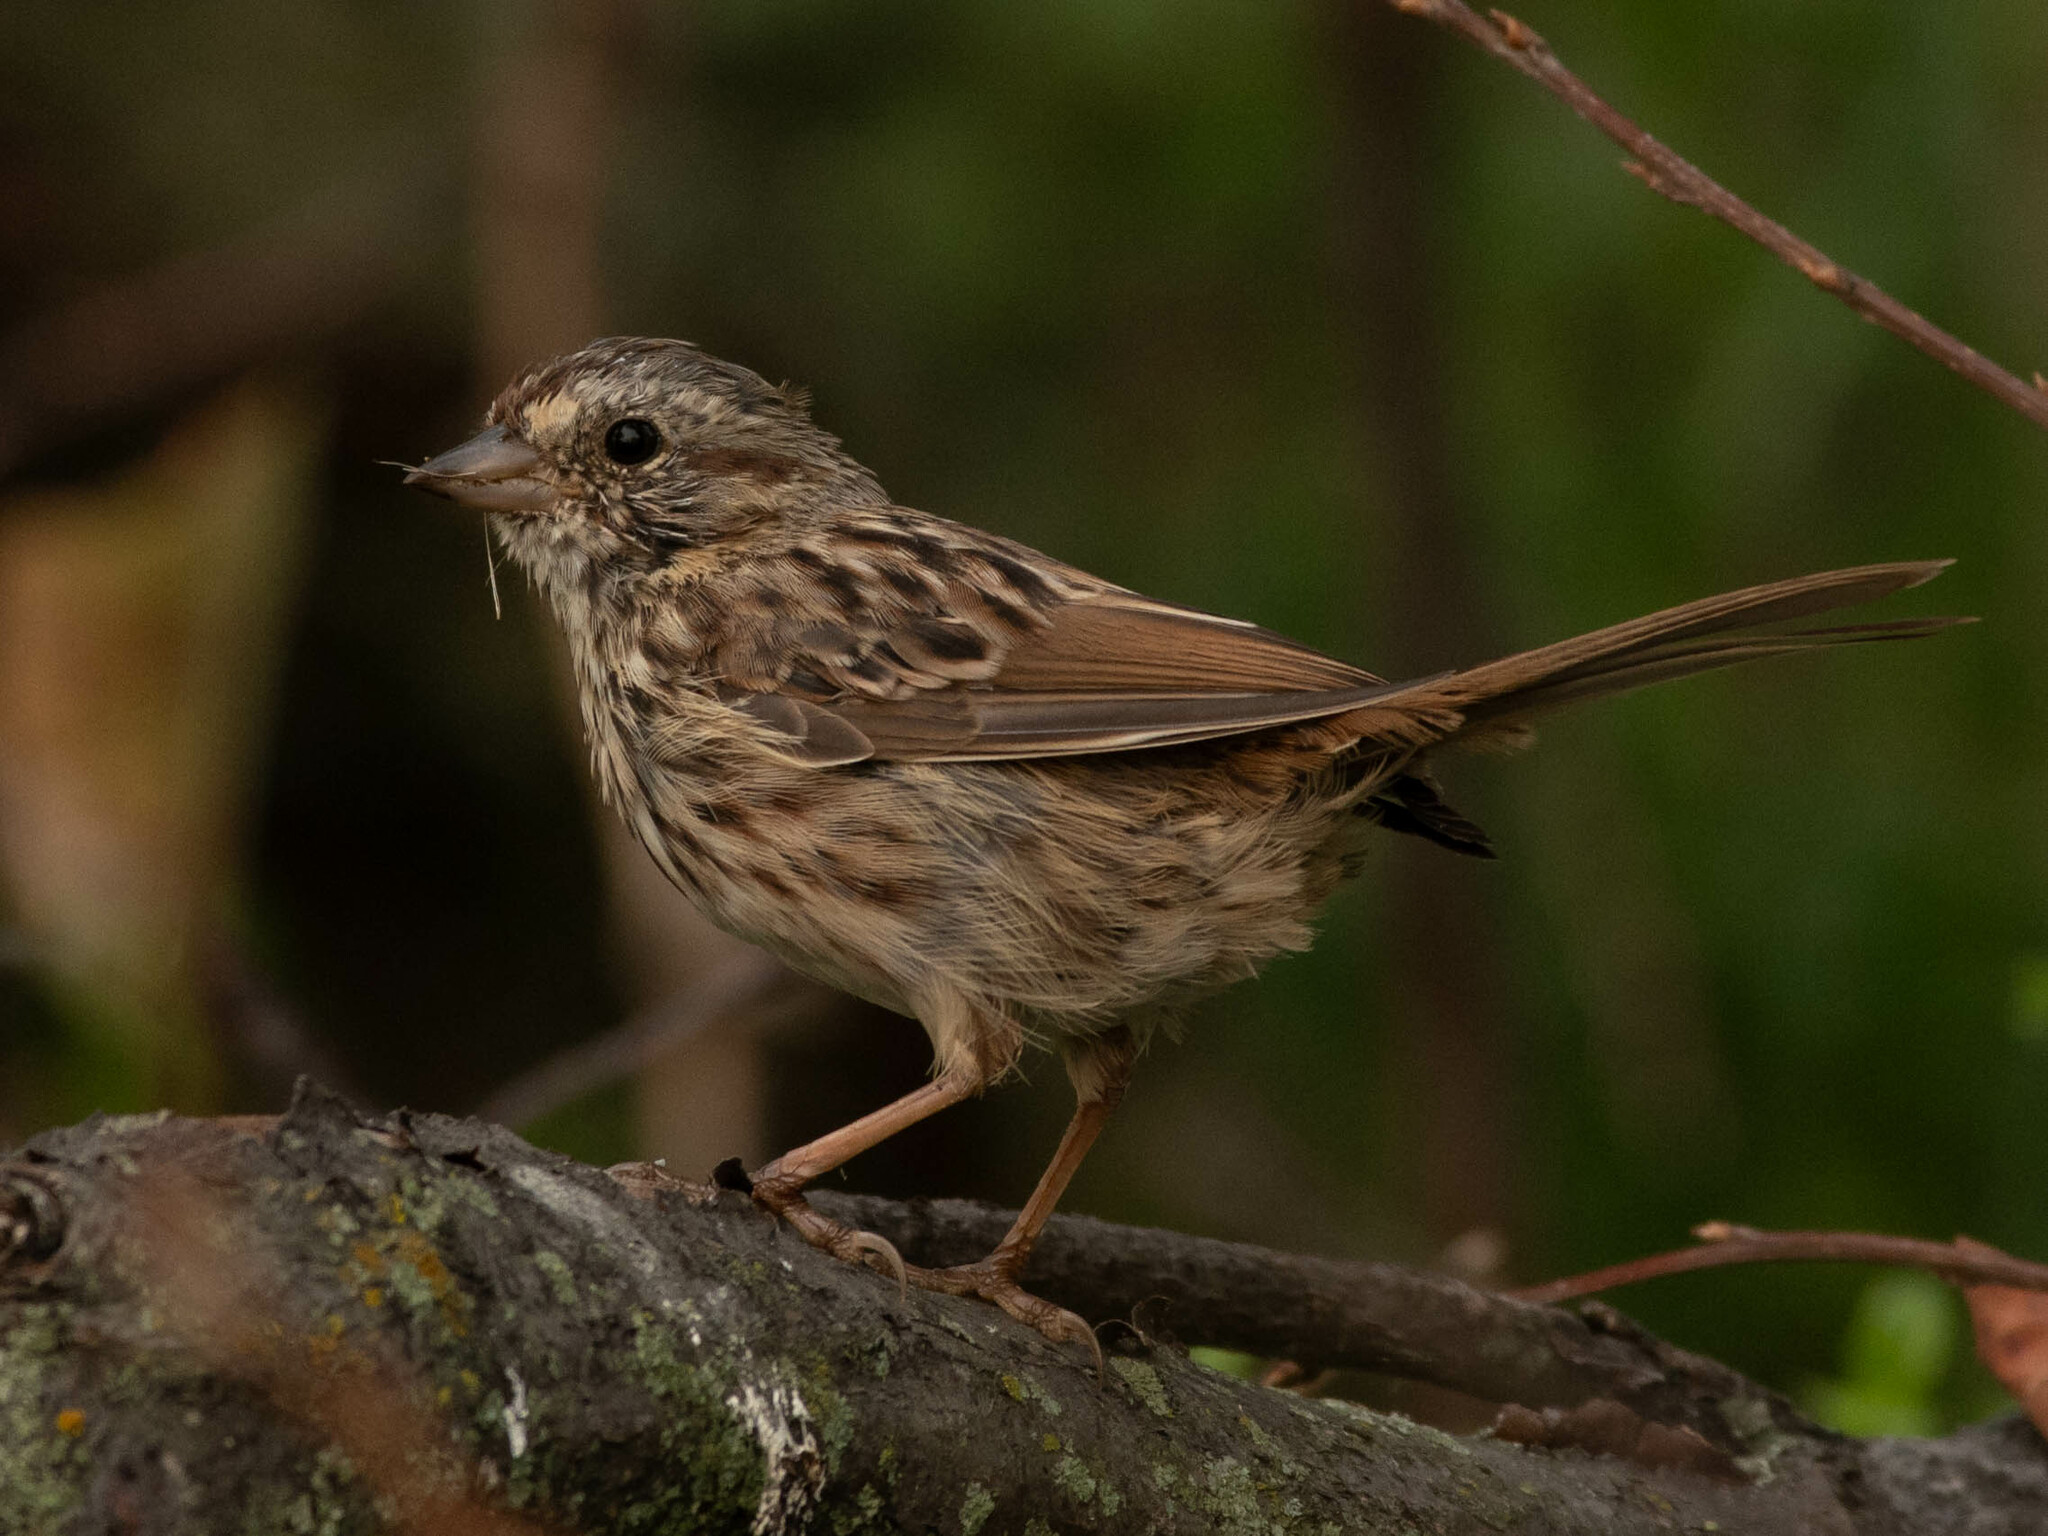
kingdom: Animalia
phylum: Chordata
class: Aves
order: Passeriformes
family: Passerellidae
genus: Melospiza
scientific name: Melospiza melodia
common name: Song sparrow
